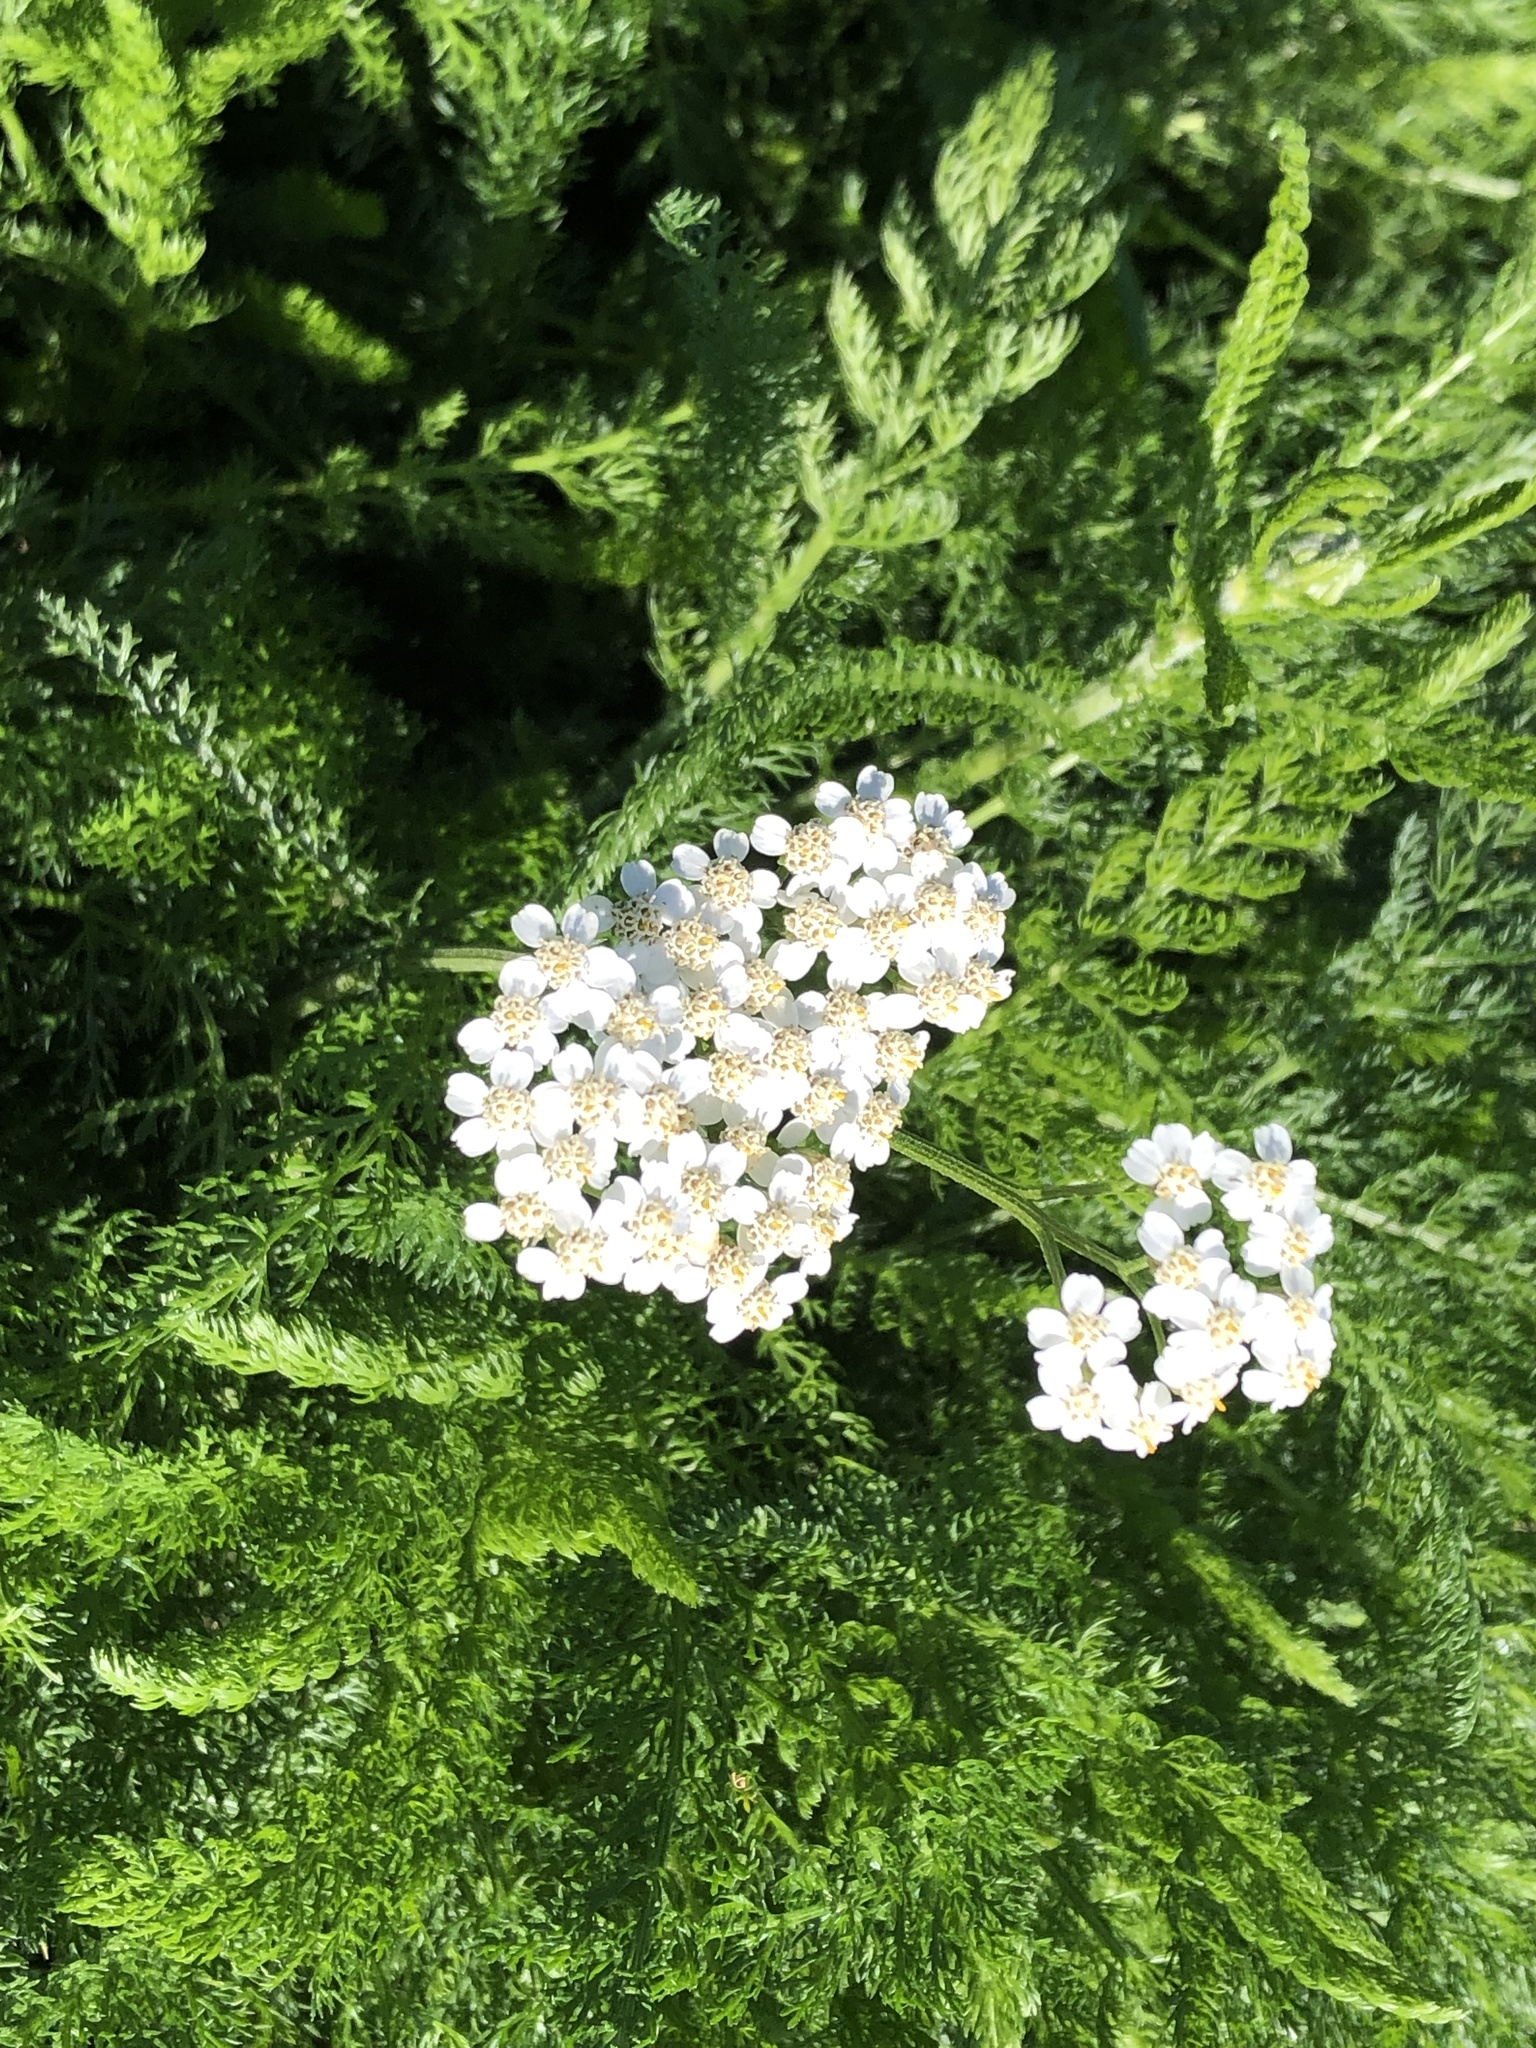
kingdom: Plantae
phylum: Tracheophyta
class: Magnoliopsida
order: Asterales
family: Asteraceae
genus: Achillea
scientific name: Achillea millefolium
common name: Yarrow
